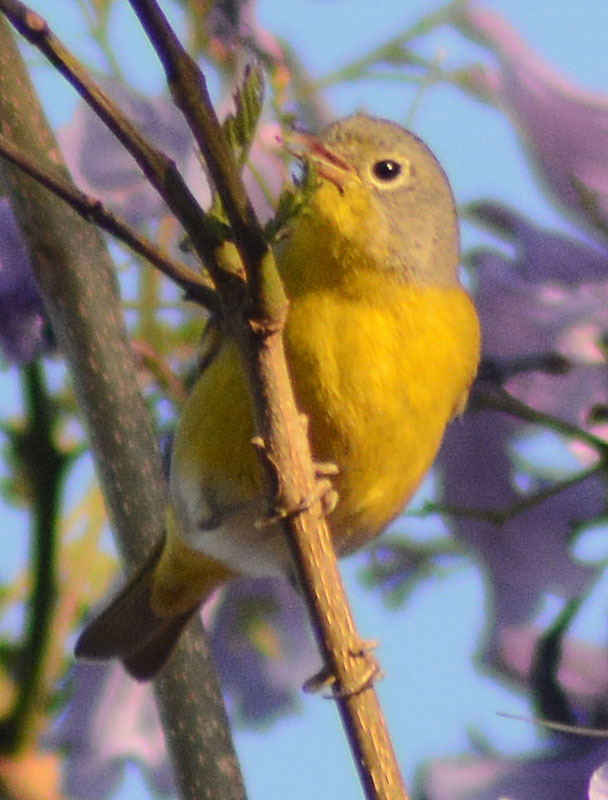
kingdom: Animalia
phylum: Chordata
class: Aves
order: Passeriformes
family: Parulidae
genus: Leiothlypis
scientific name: Leiothlypis ruficapilla
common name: Nashville warbler
